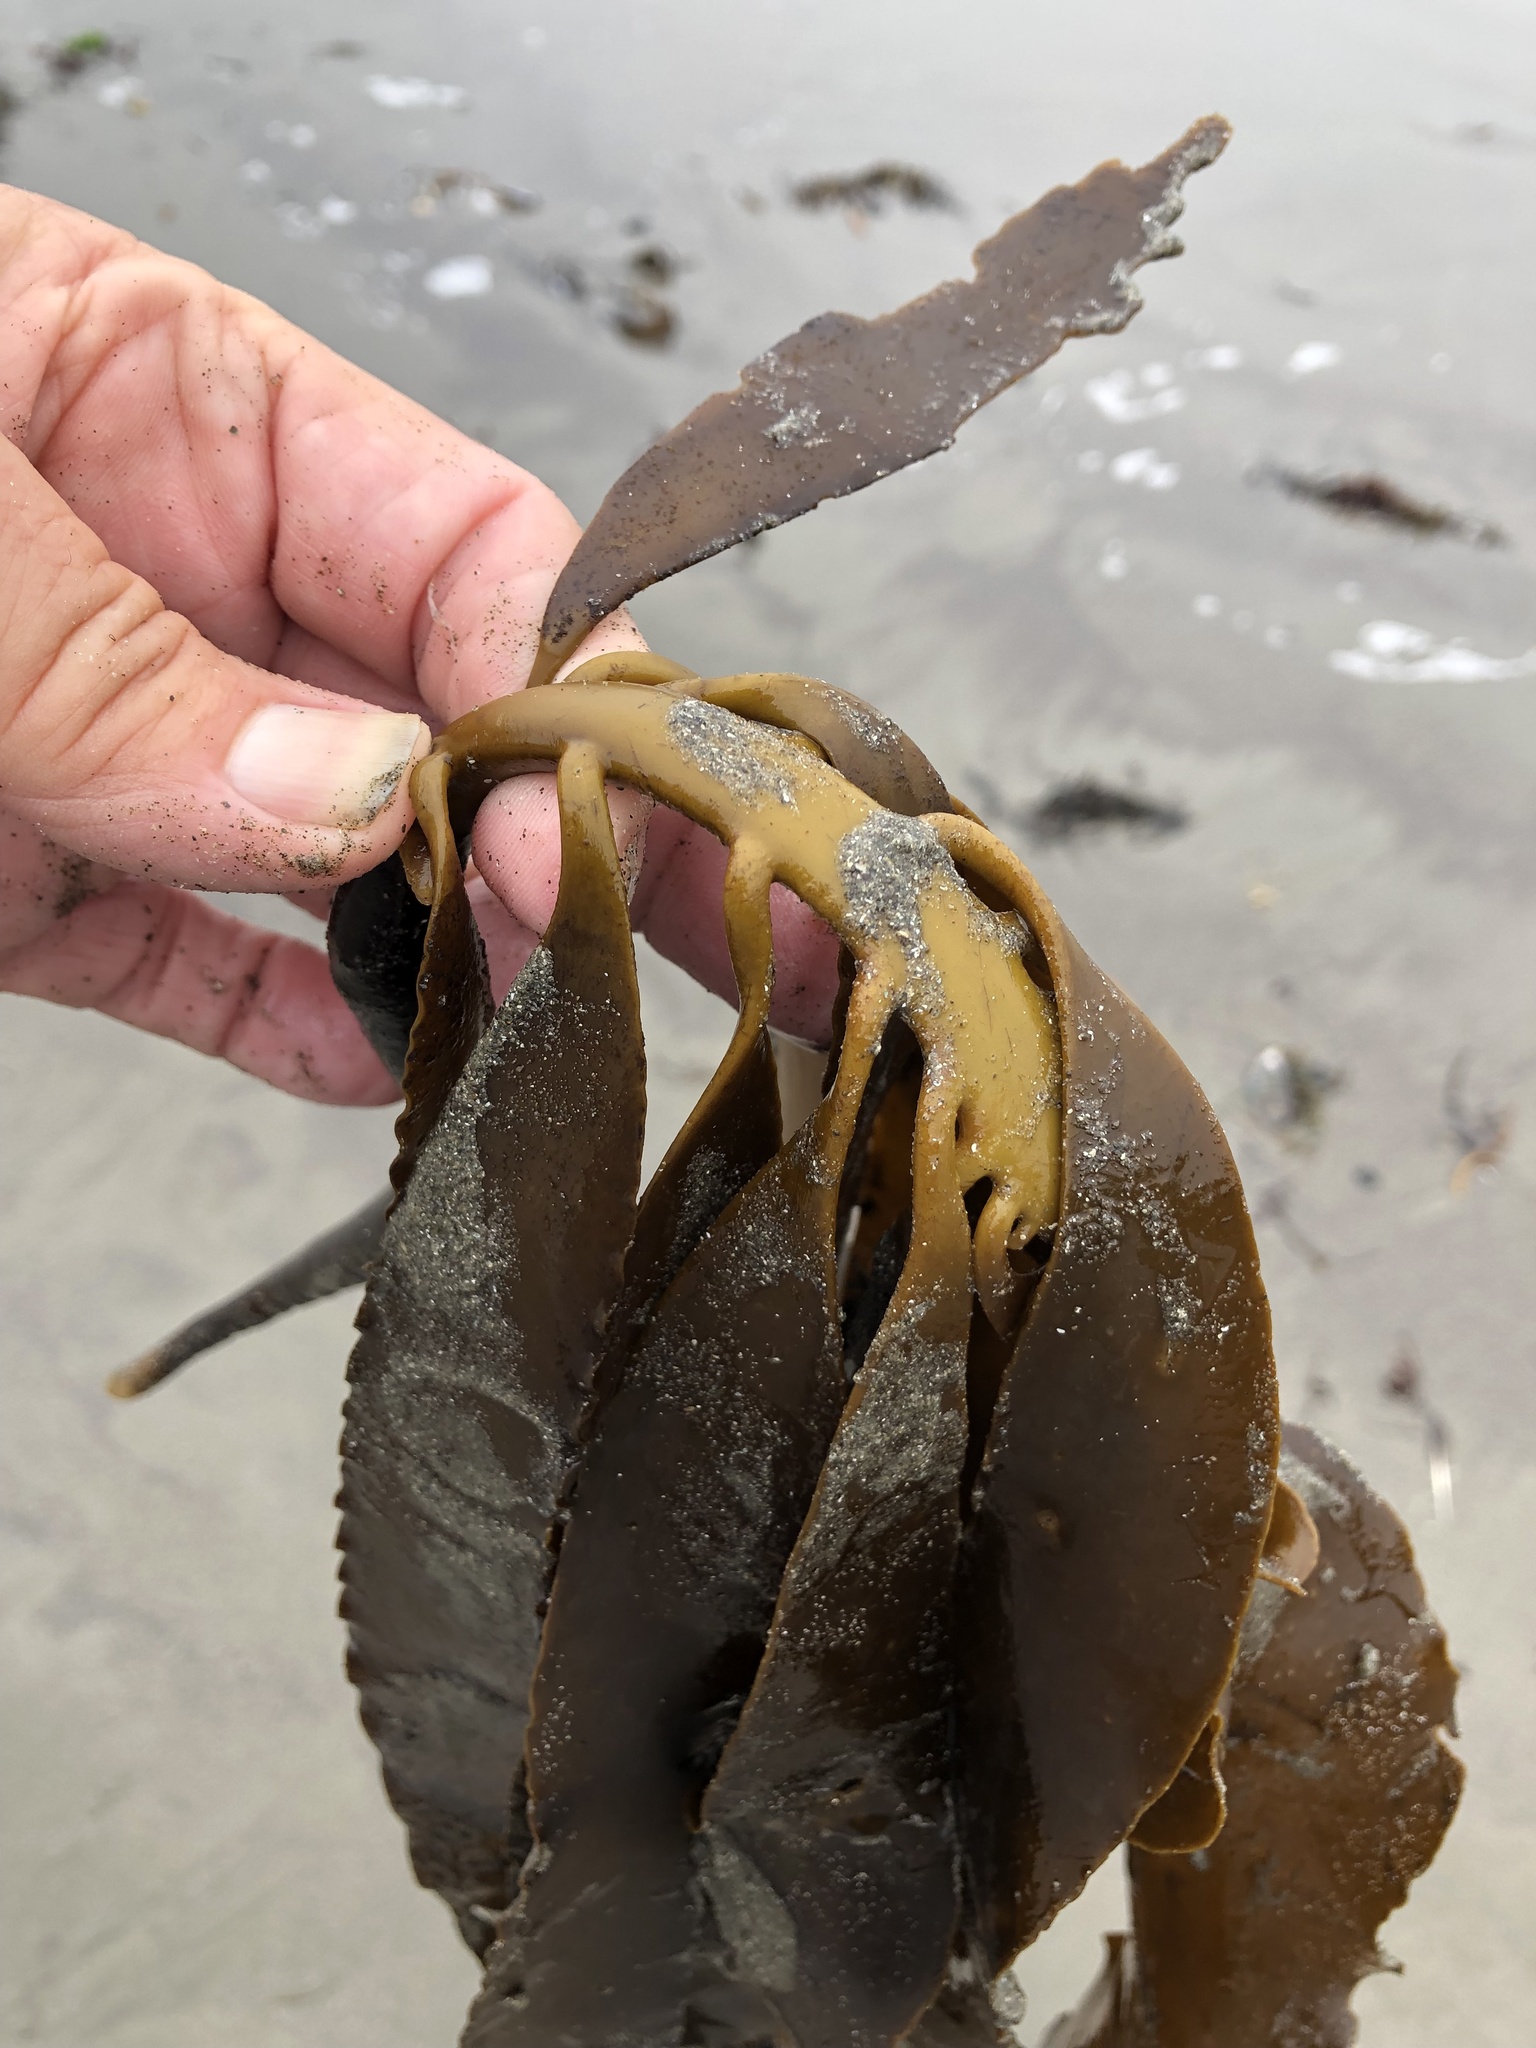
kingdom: Chromista
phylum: Ochrophyta
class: Phaeophyceae
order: Laminariales
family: Alariaceae
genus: Pterygophora
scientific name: Pterygophora californica
